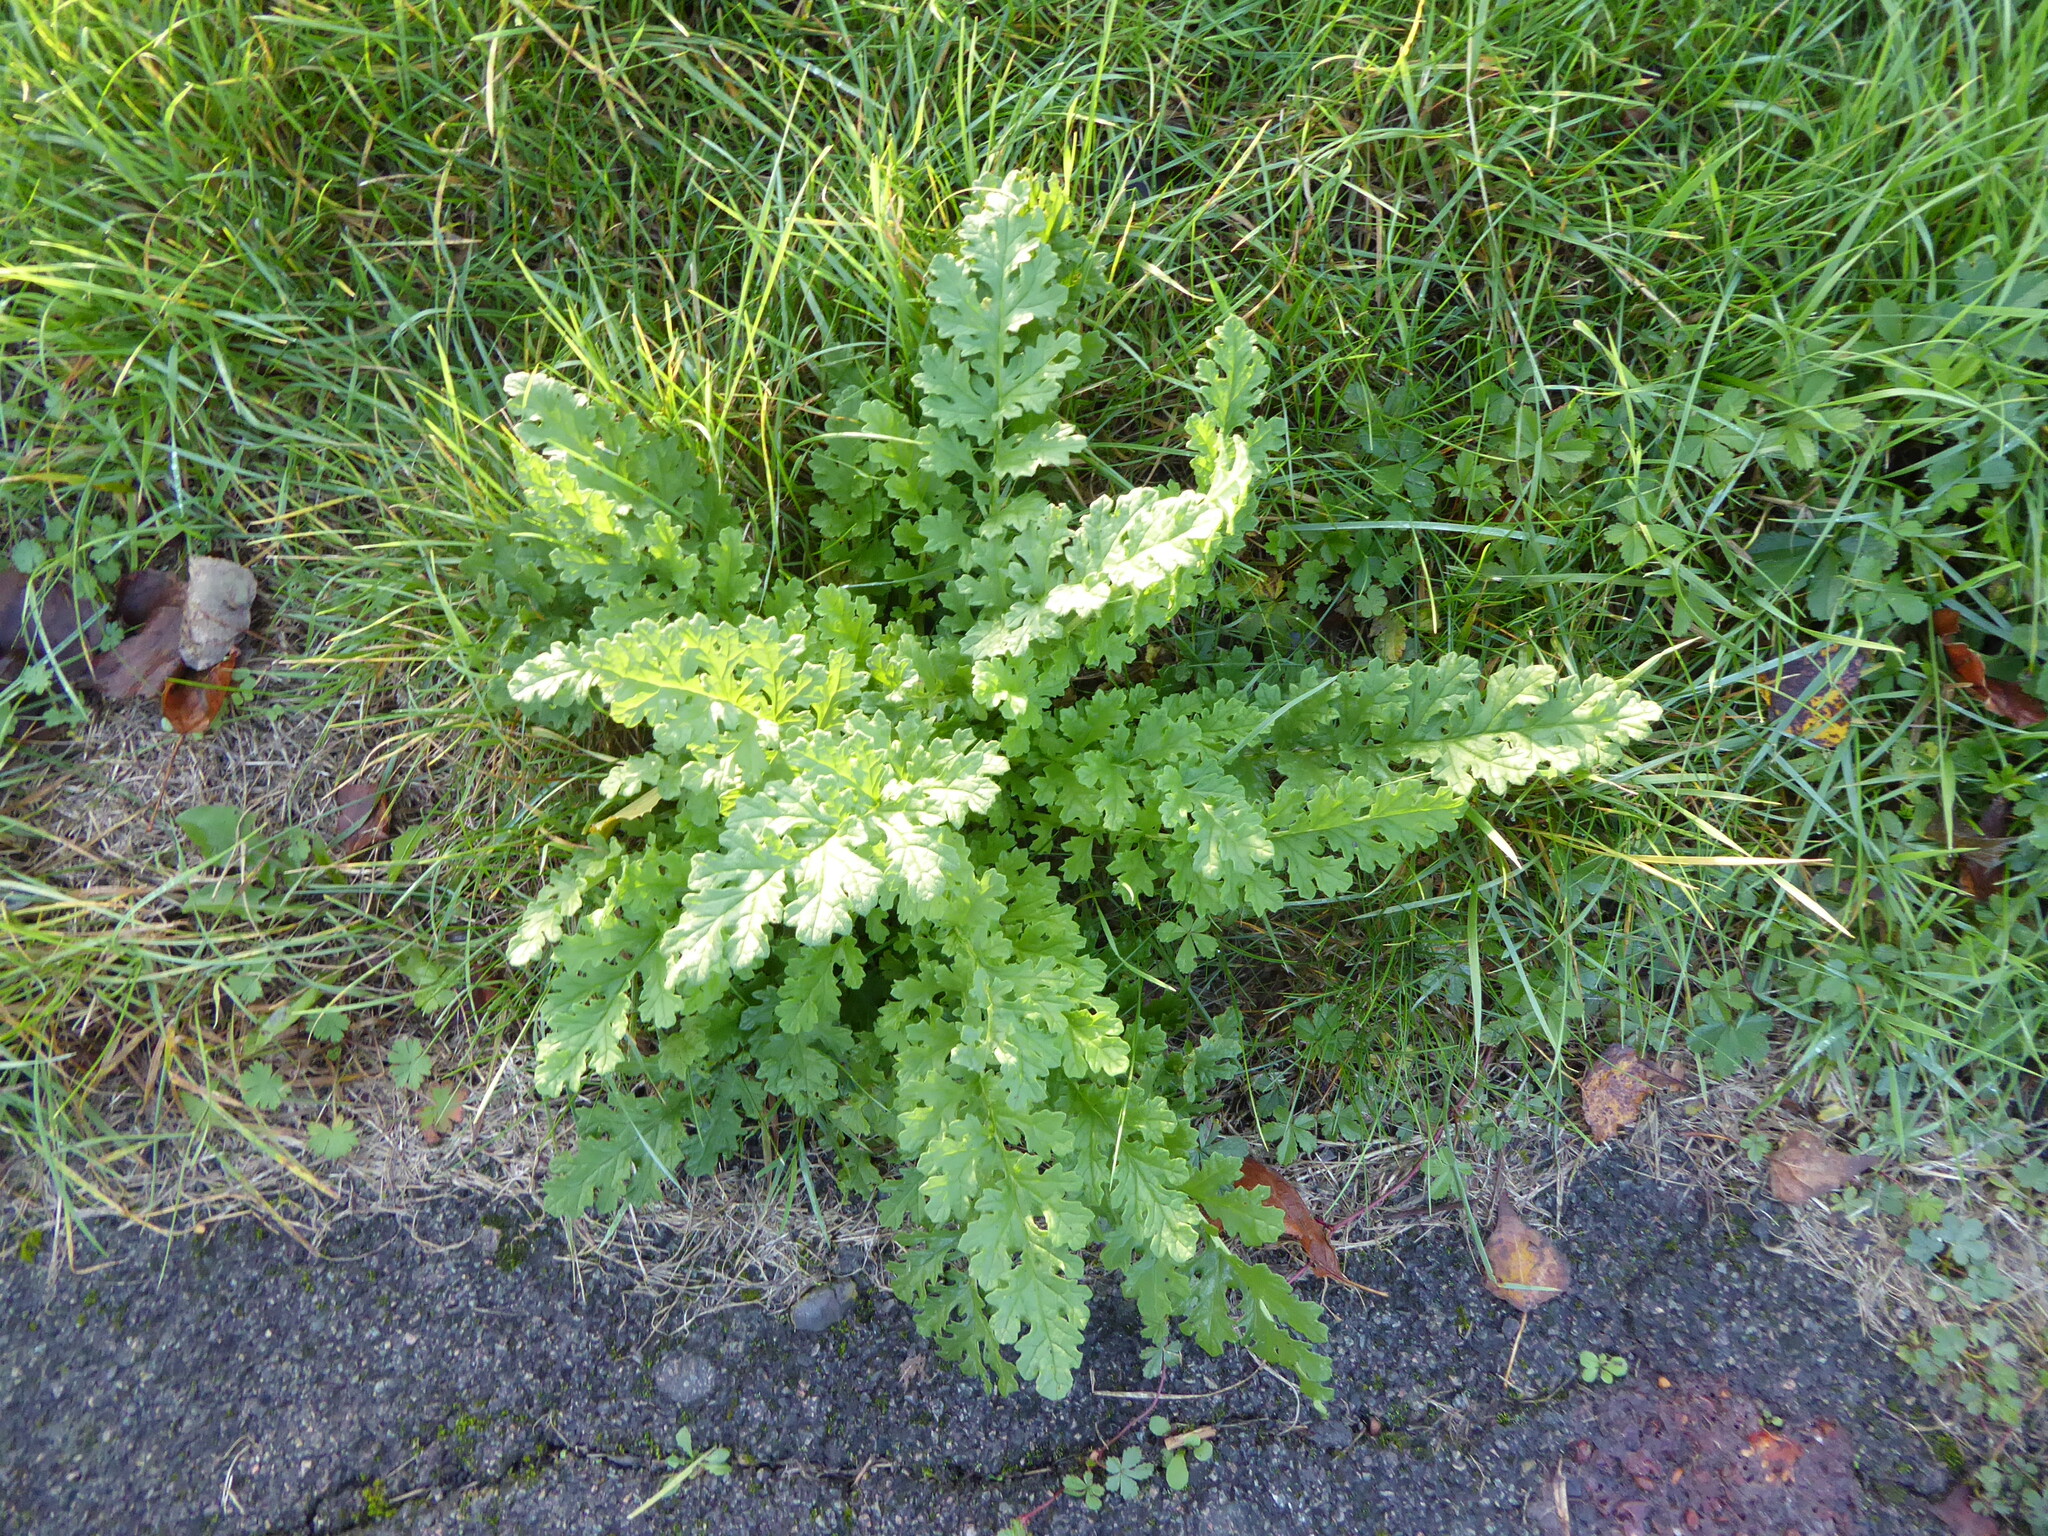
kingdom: Plantae
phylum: Tracheophyta
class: Magnoliopsida
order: Asterales
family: Asteraceae
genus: Jacobaea
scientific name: Jacobaea vulgaris
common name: Stinking willie
